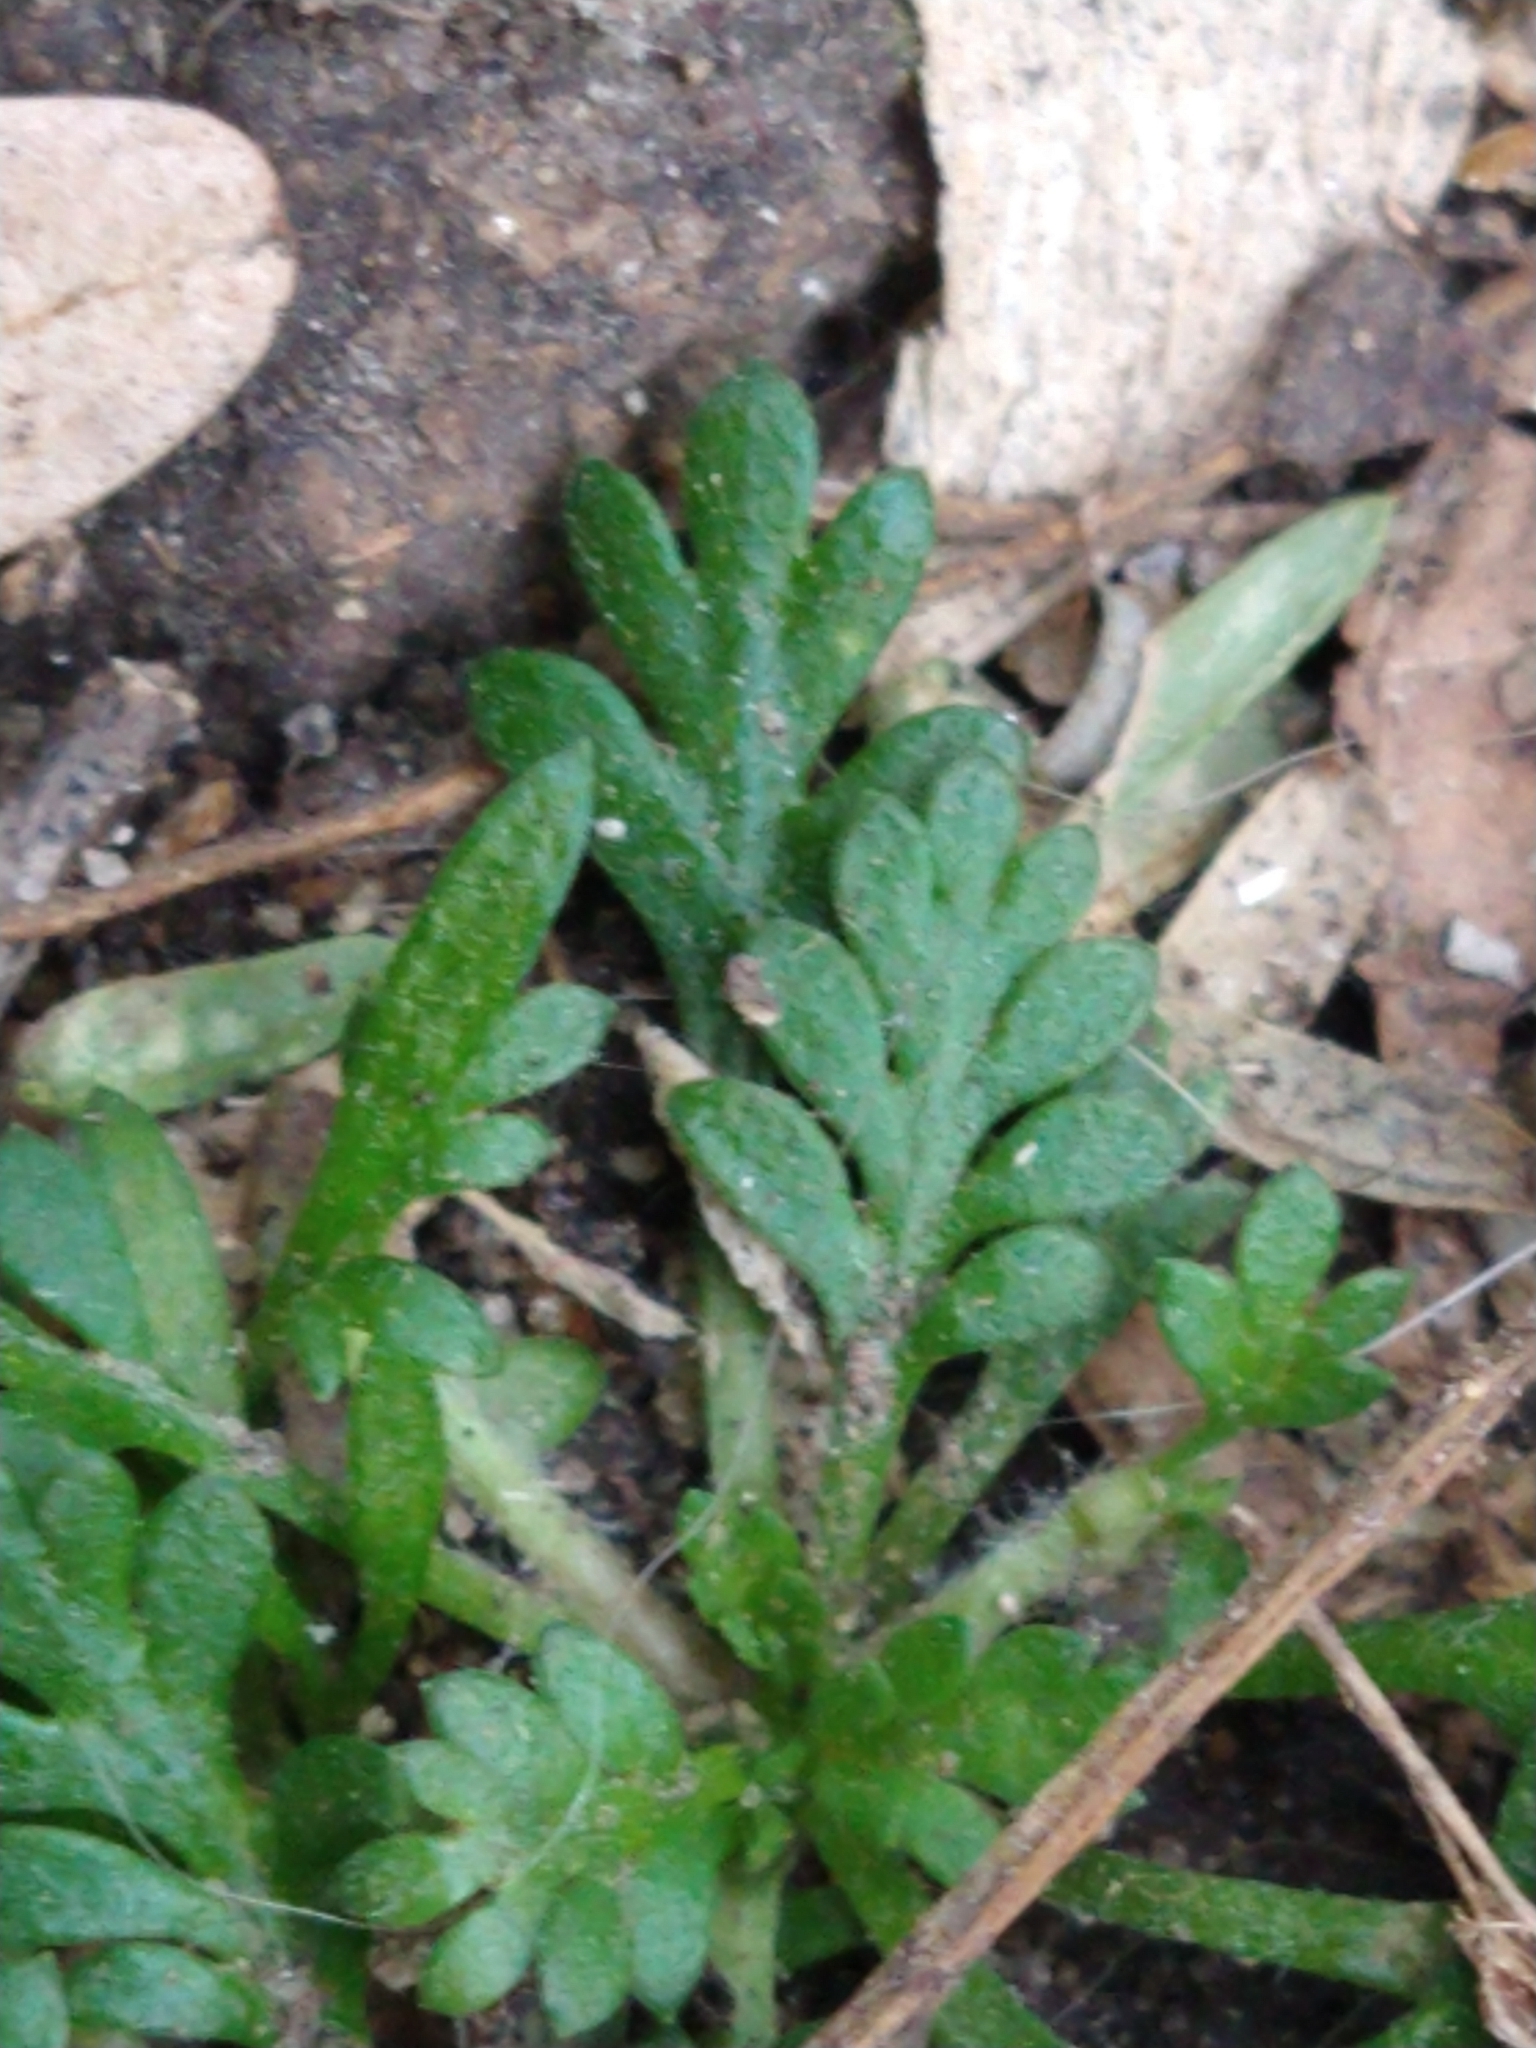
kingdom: Plantae
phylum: Tracheophyta
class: Magnoliopsida
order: Asterales
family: Asteraceae
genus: Cotula
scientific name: Cotula australis
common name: Australian waterbuttons
